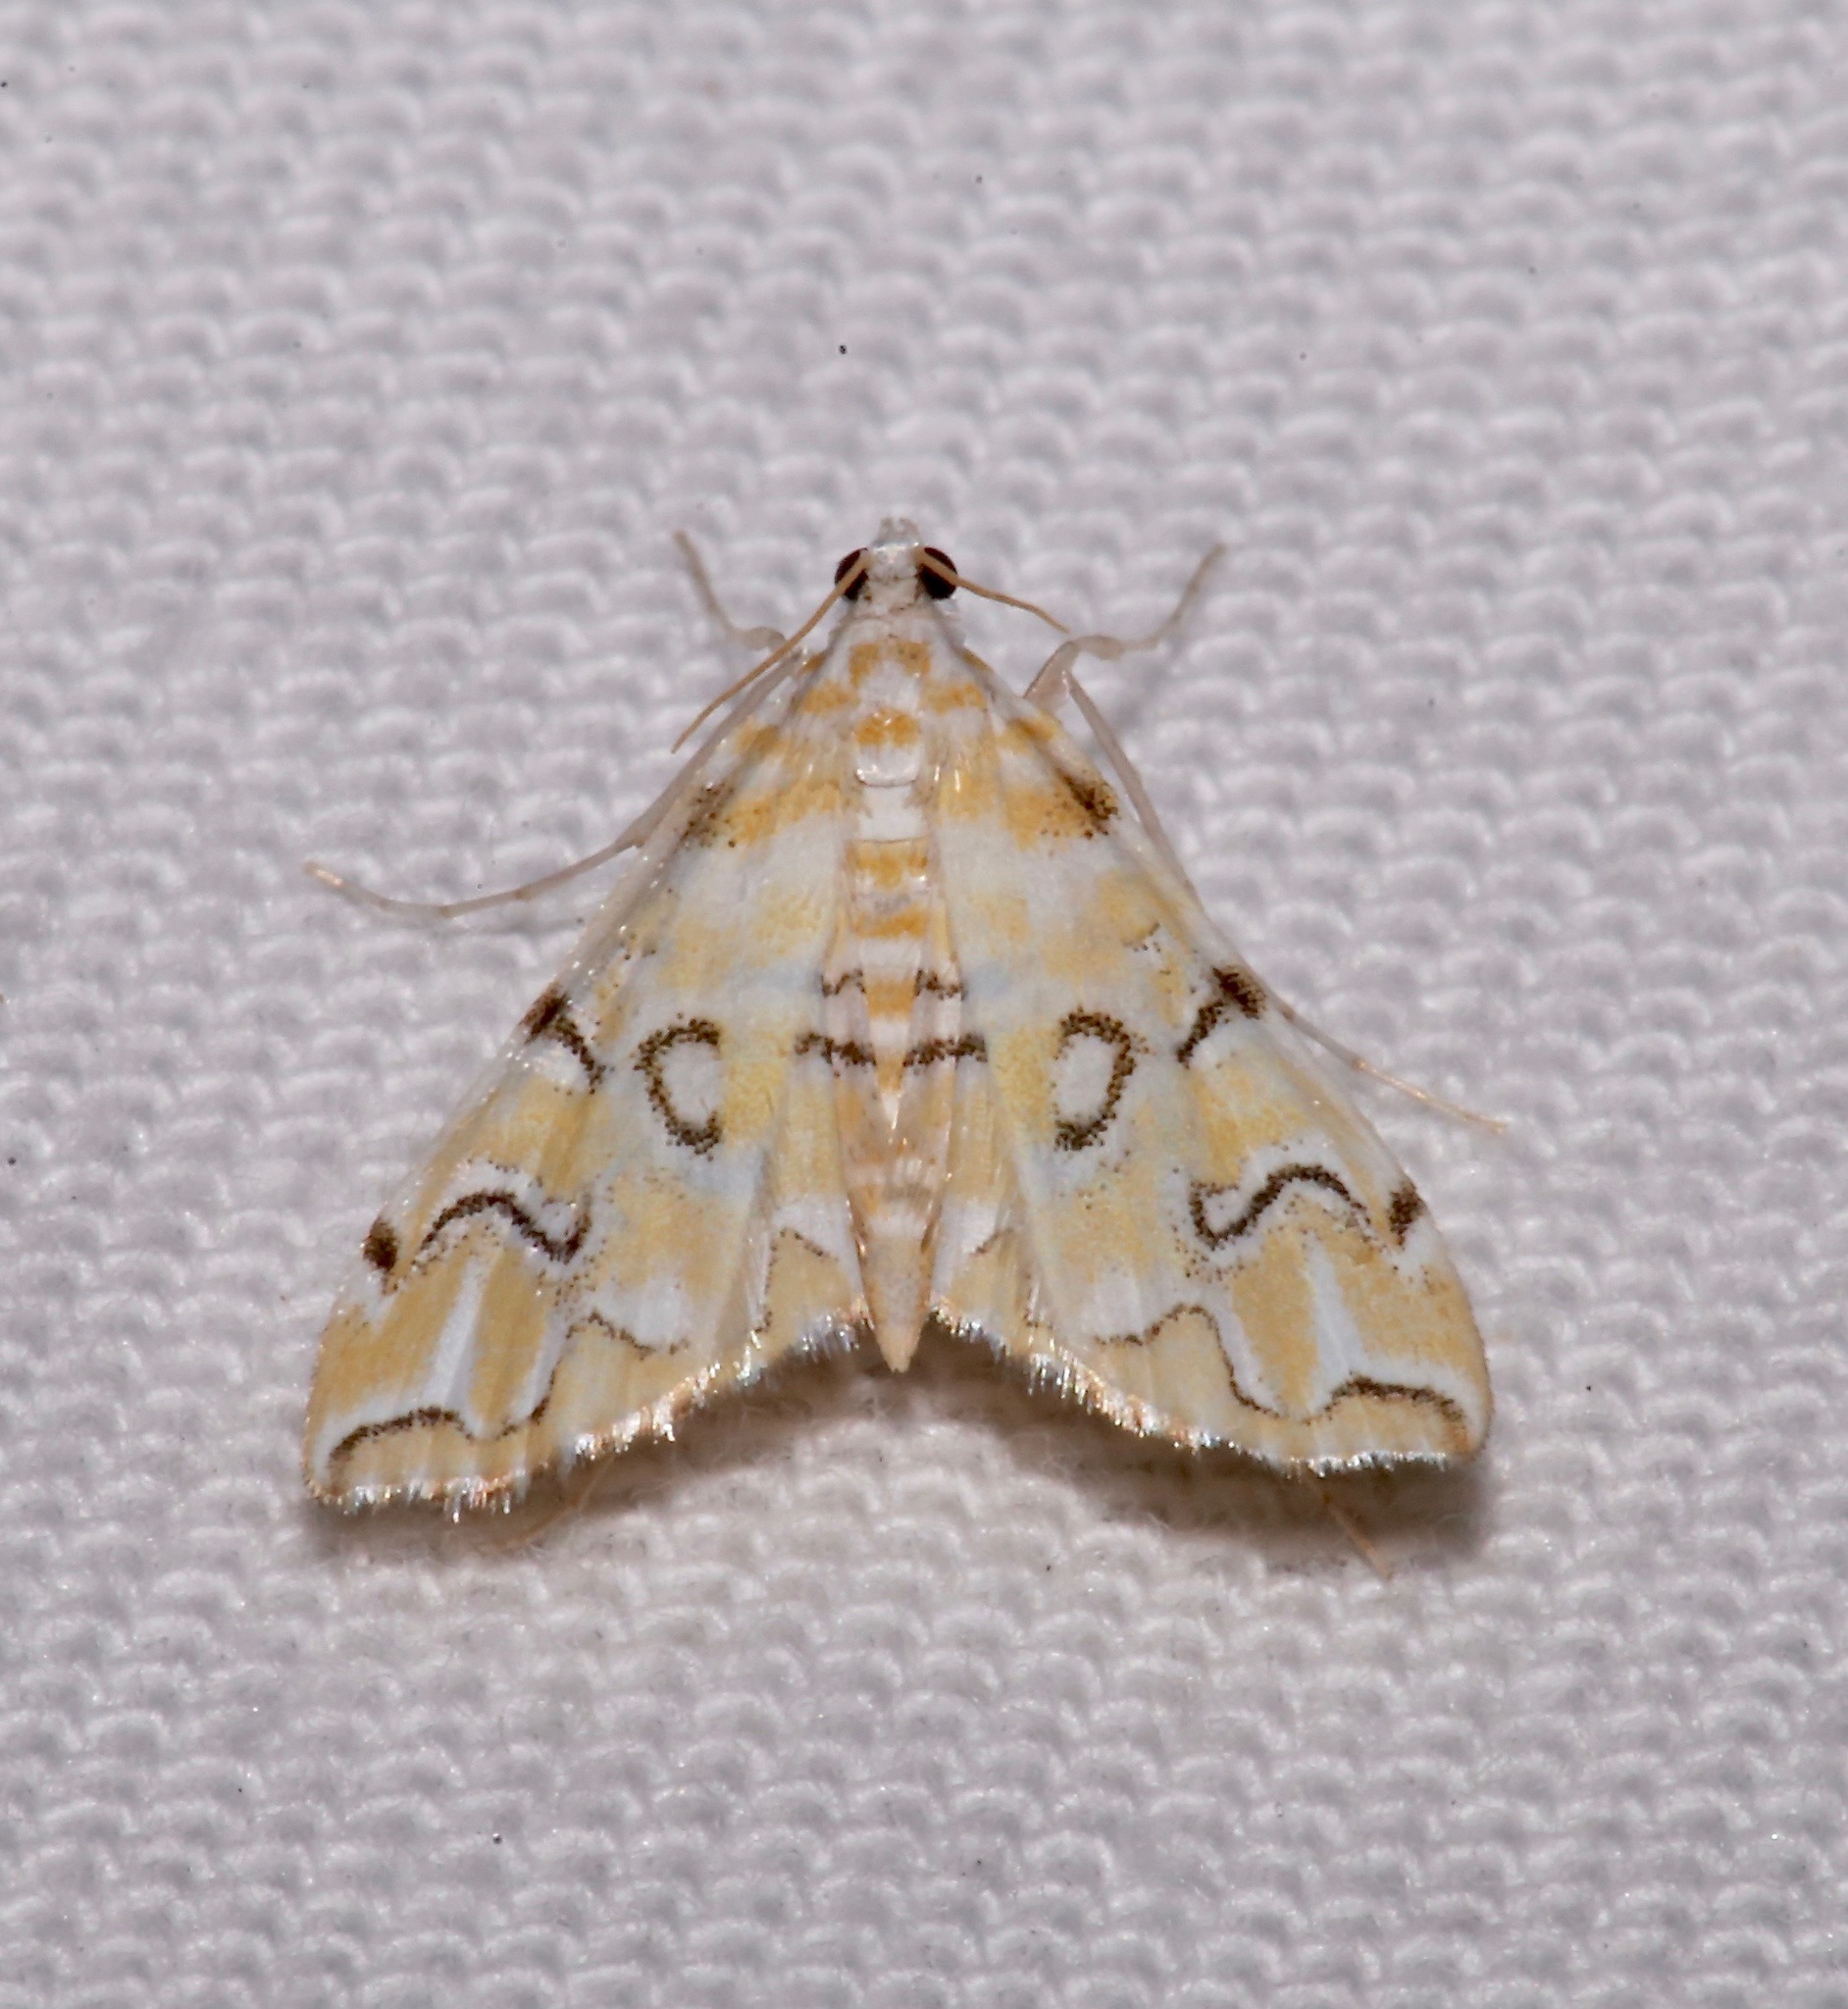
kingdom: Animalia
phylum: Arthropoda
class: Insecta
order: Lepidoptera
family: Crambidae
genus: Elophila
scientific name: Elophila icciusalis
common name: Pondside pyralid moth
